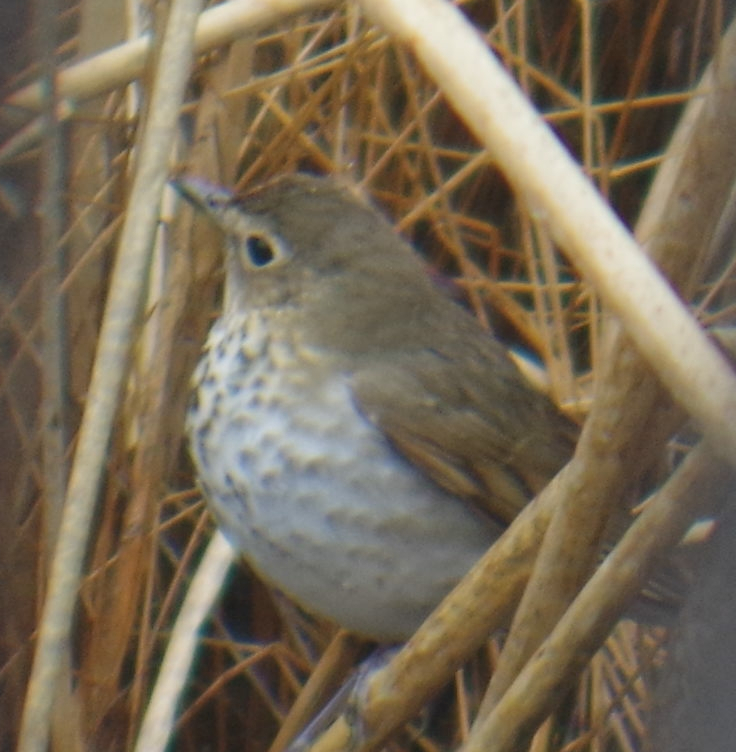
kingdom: Animalia
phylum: Chordata
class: Aves
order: Passeriformes
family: Turdidae
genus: Catharus
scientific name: Catharus ustulatus
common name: Swainson's thrush
